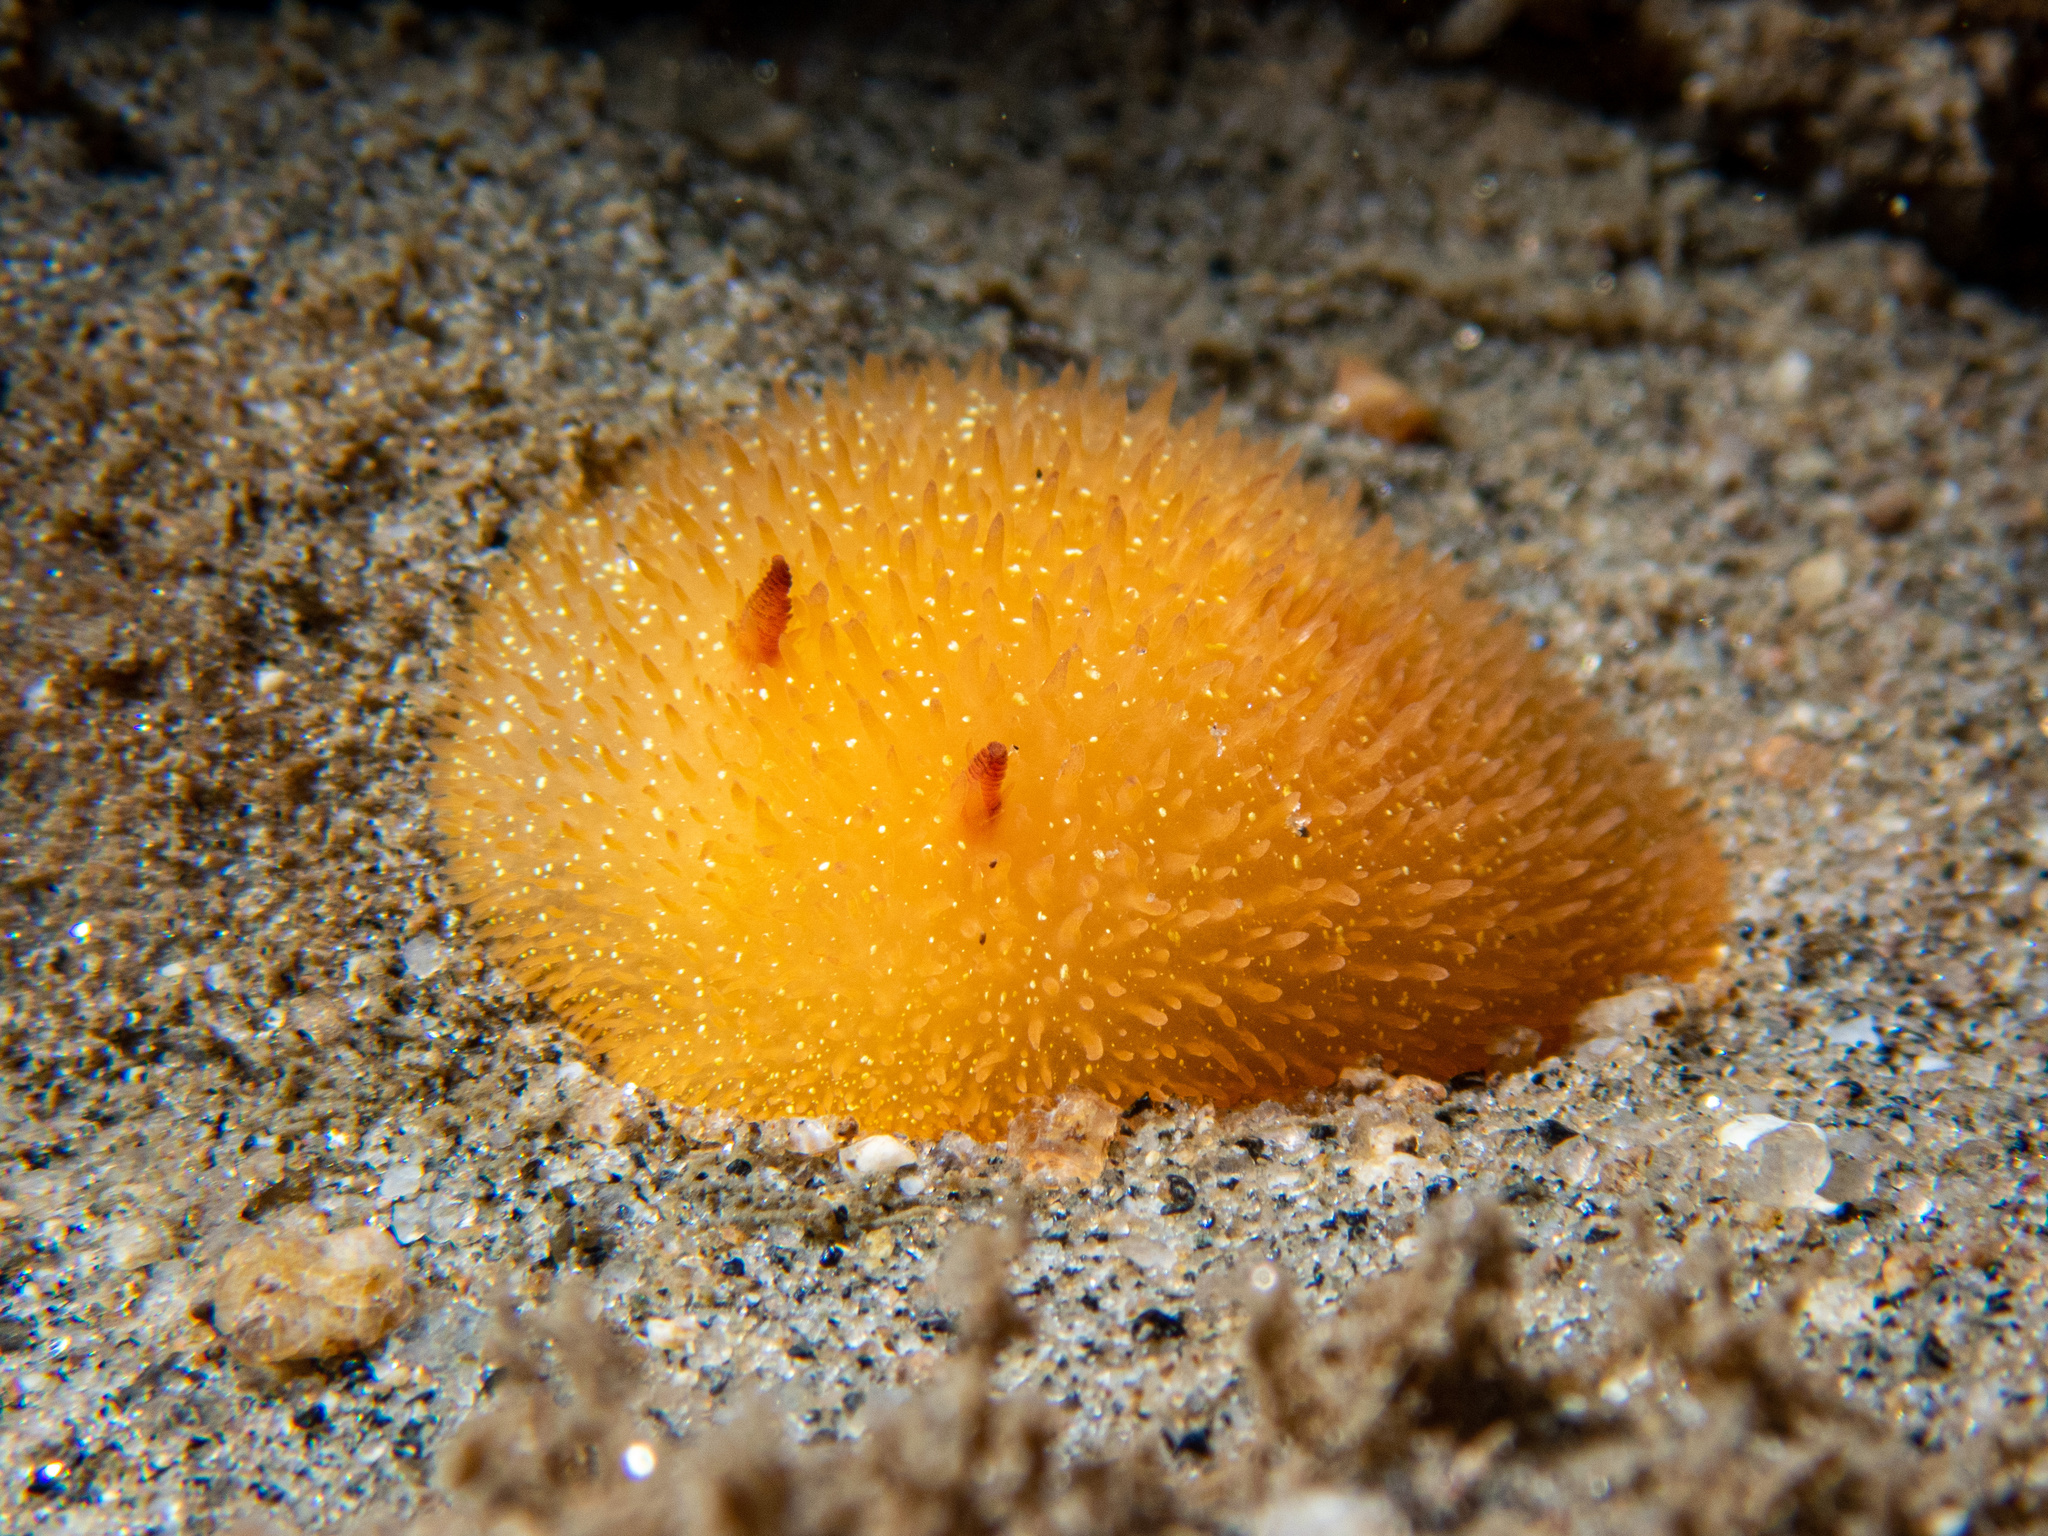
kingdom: Animalia
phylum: Mollusca
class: Gastropoda
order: Nudibranchia
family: Onchidorididae
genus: Acanthodoris
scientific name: Acanthodoris lutea
